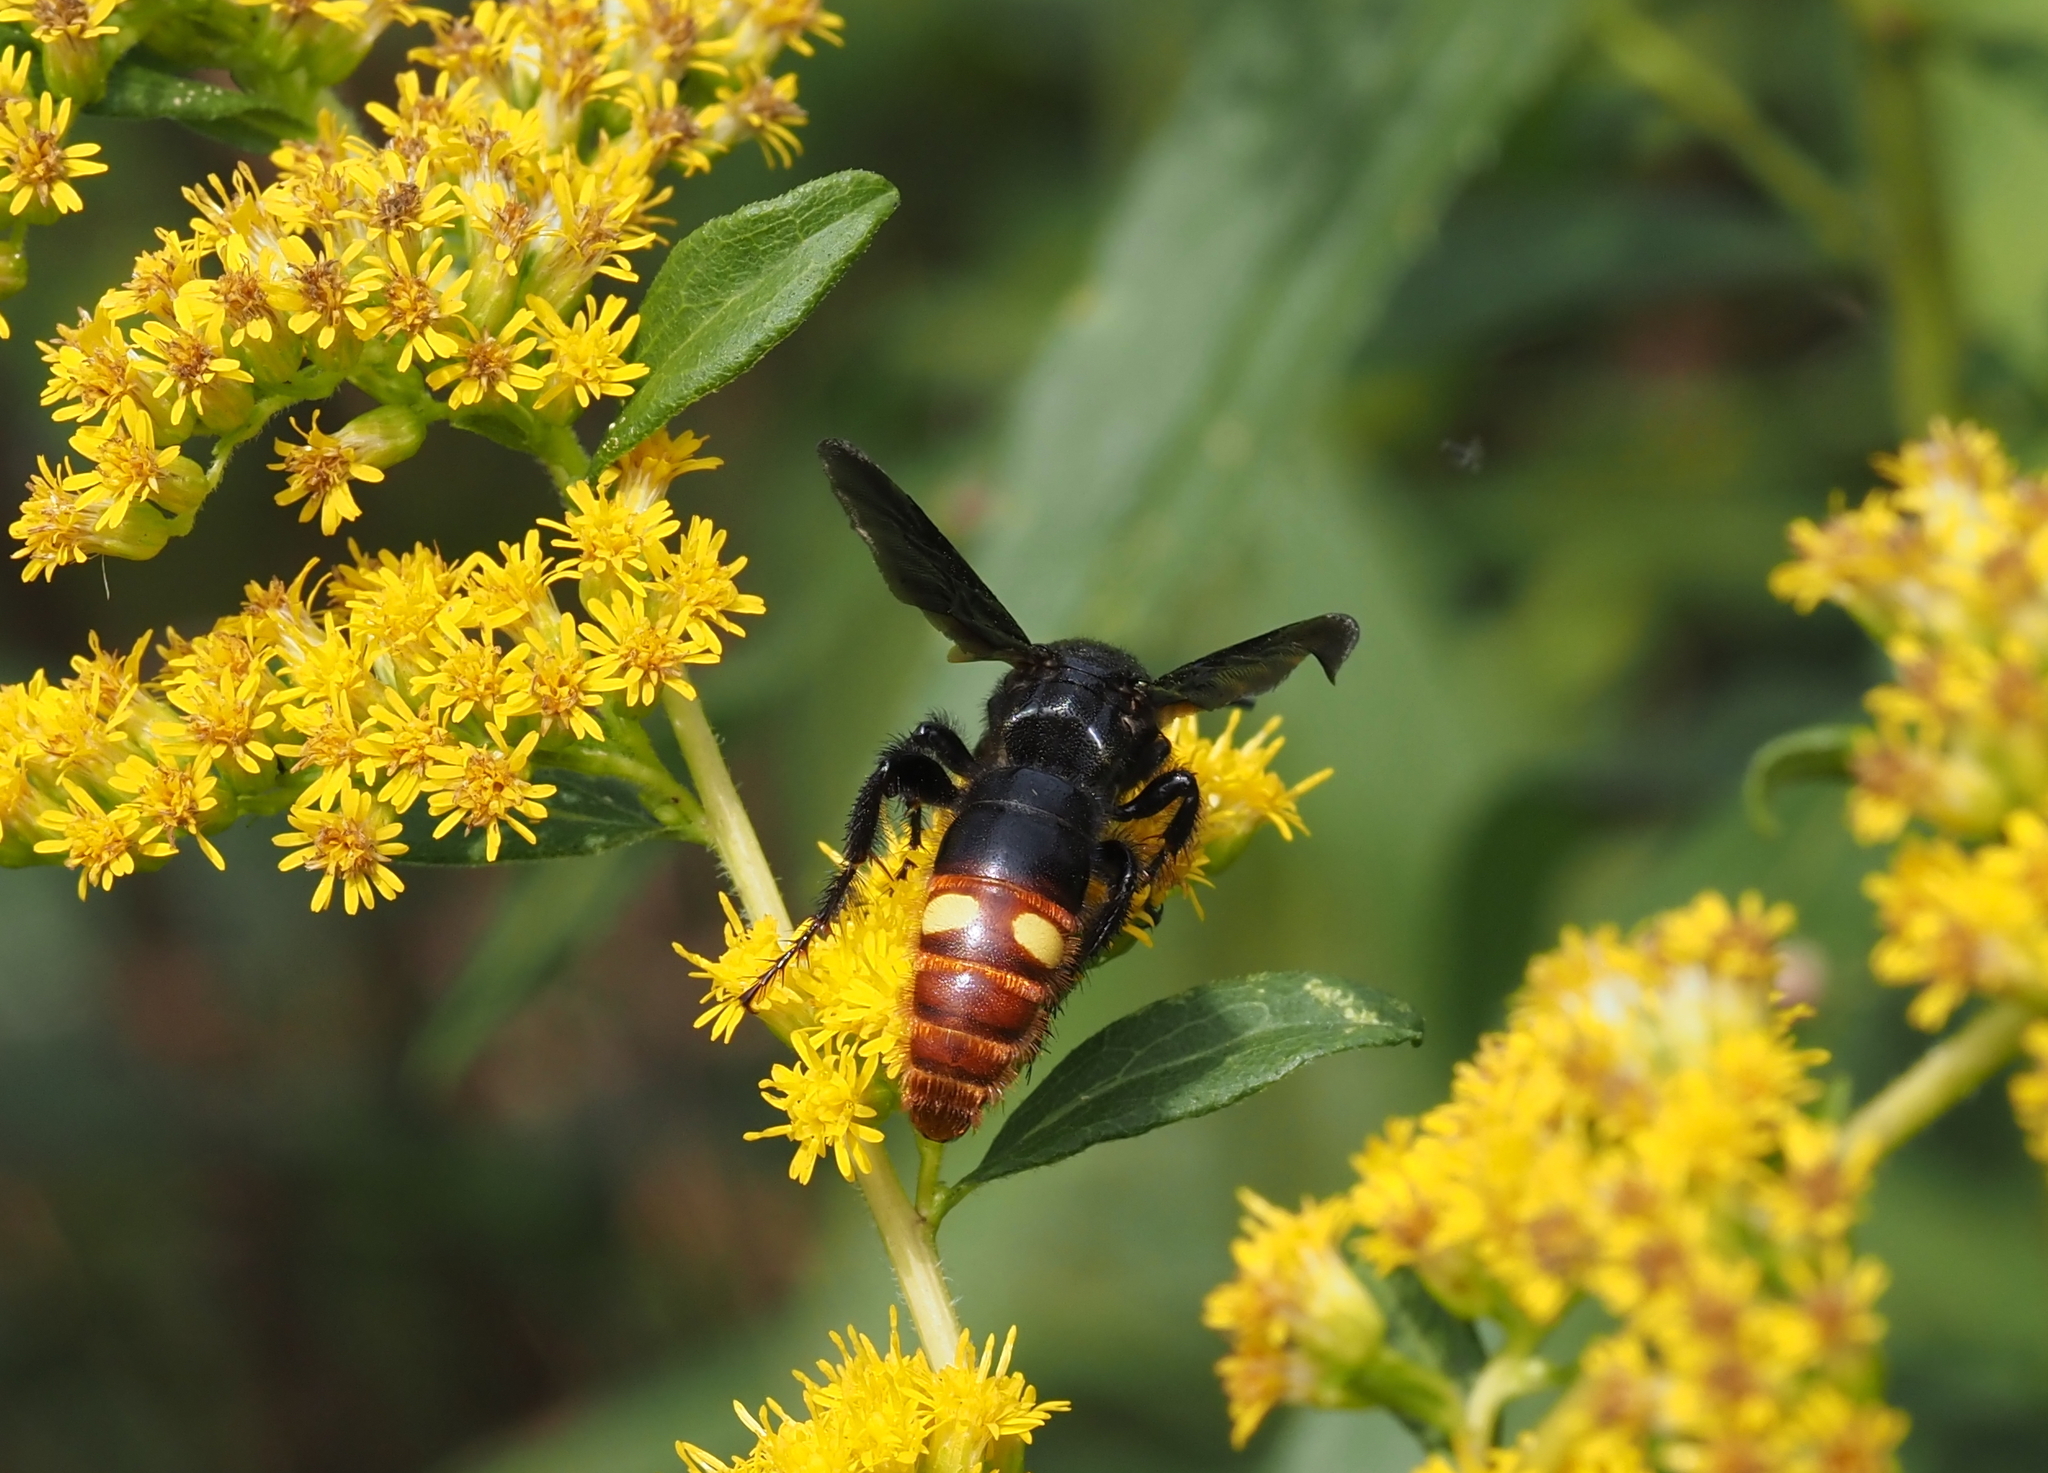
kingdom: Animalia
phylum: Arthropoda
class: Insecta
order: Hymenoptera
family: Scoliidae
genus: Scolia
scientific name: Scolia dubia
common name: Blue-winged scoliid wasp
